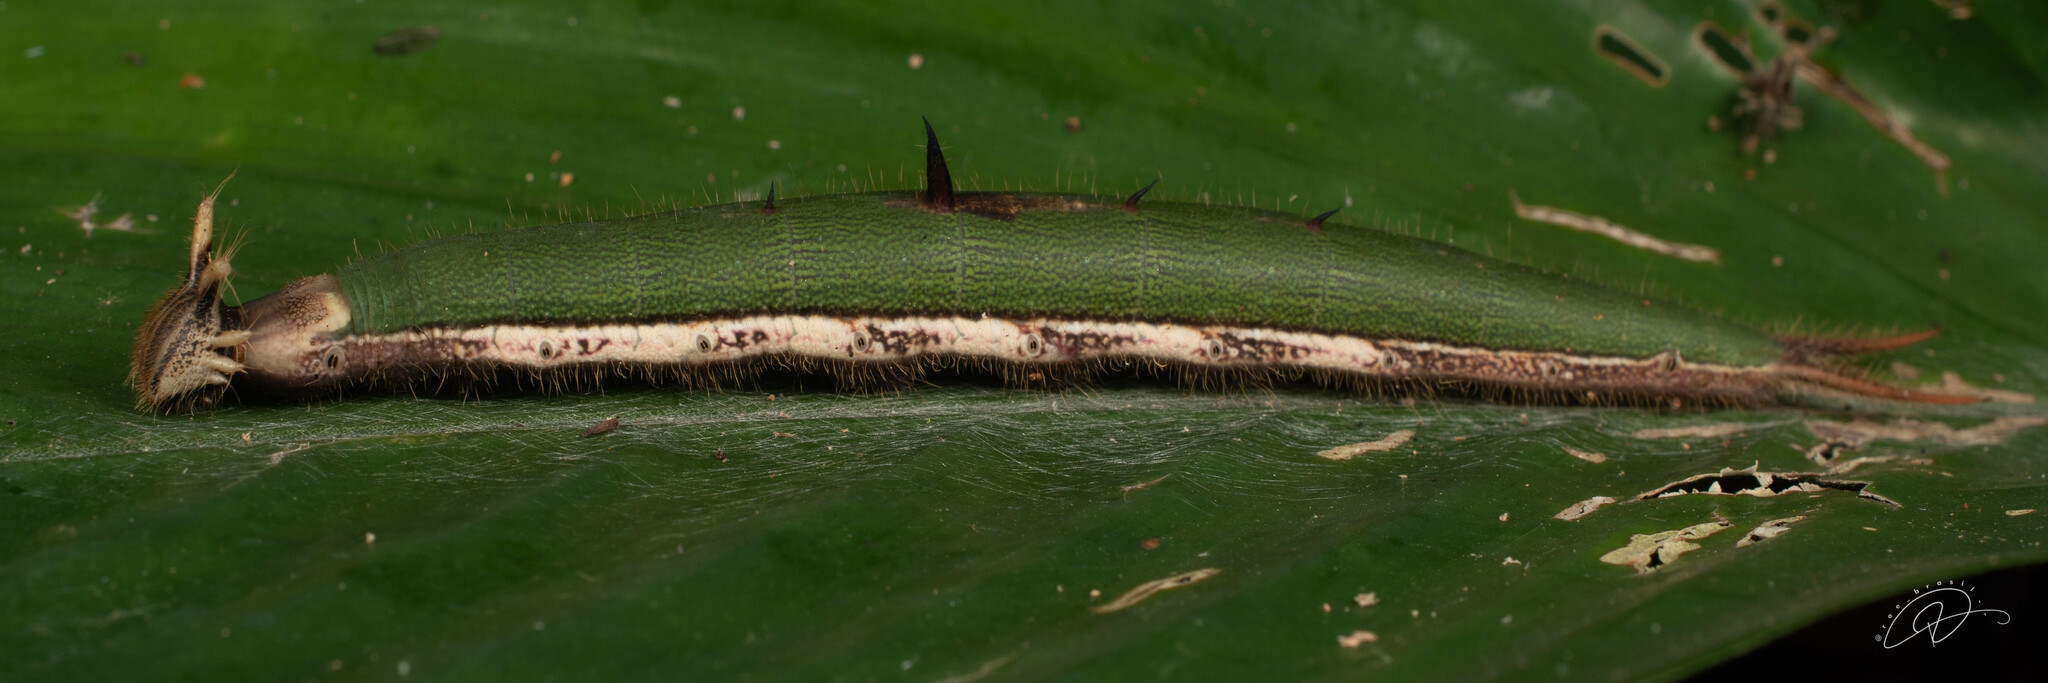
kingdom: Animalia
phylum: Arthropoda
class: Insecta
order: Lepidoptera
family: Nymphalidae
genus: Caligo
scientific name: Caligo beltrao
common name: Purple owl-butterfly
